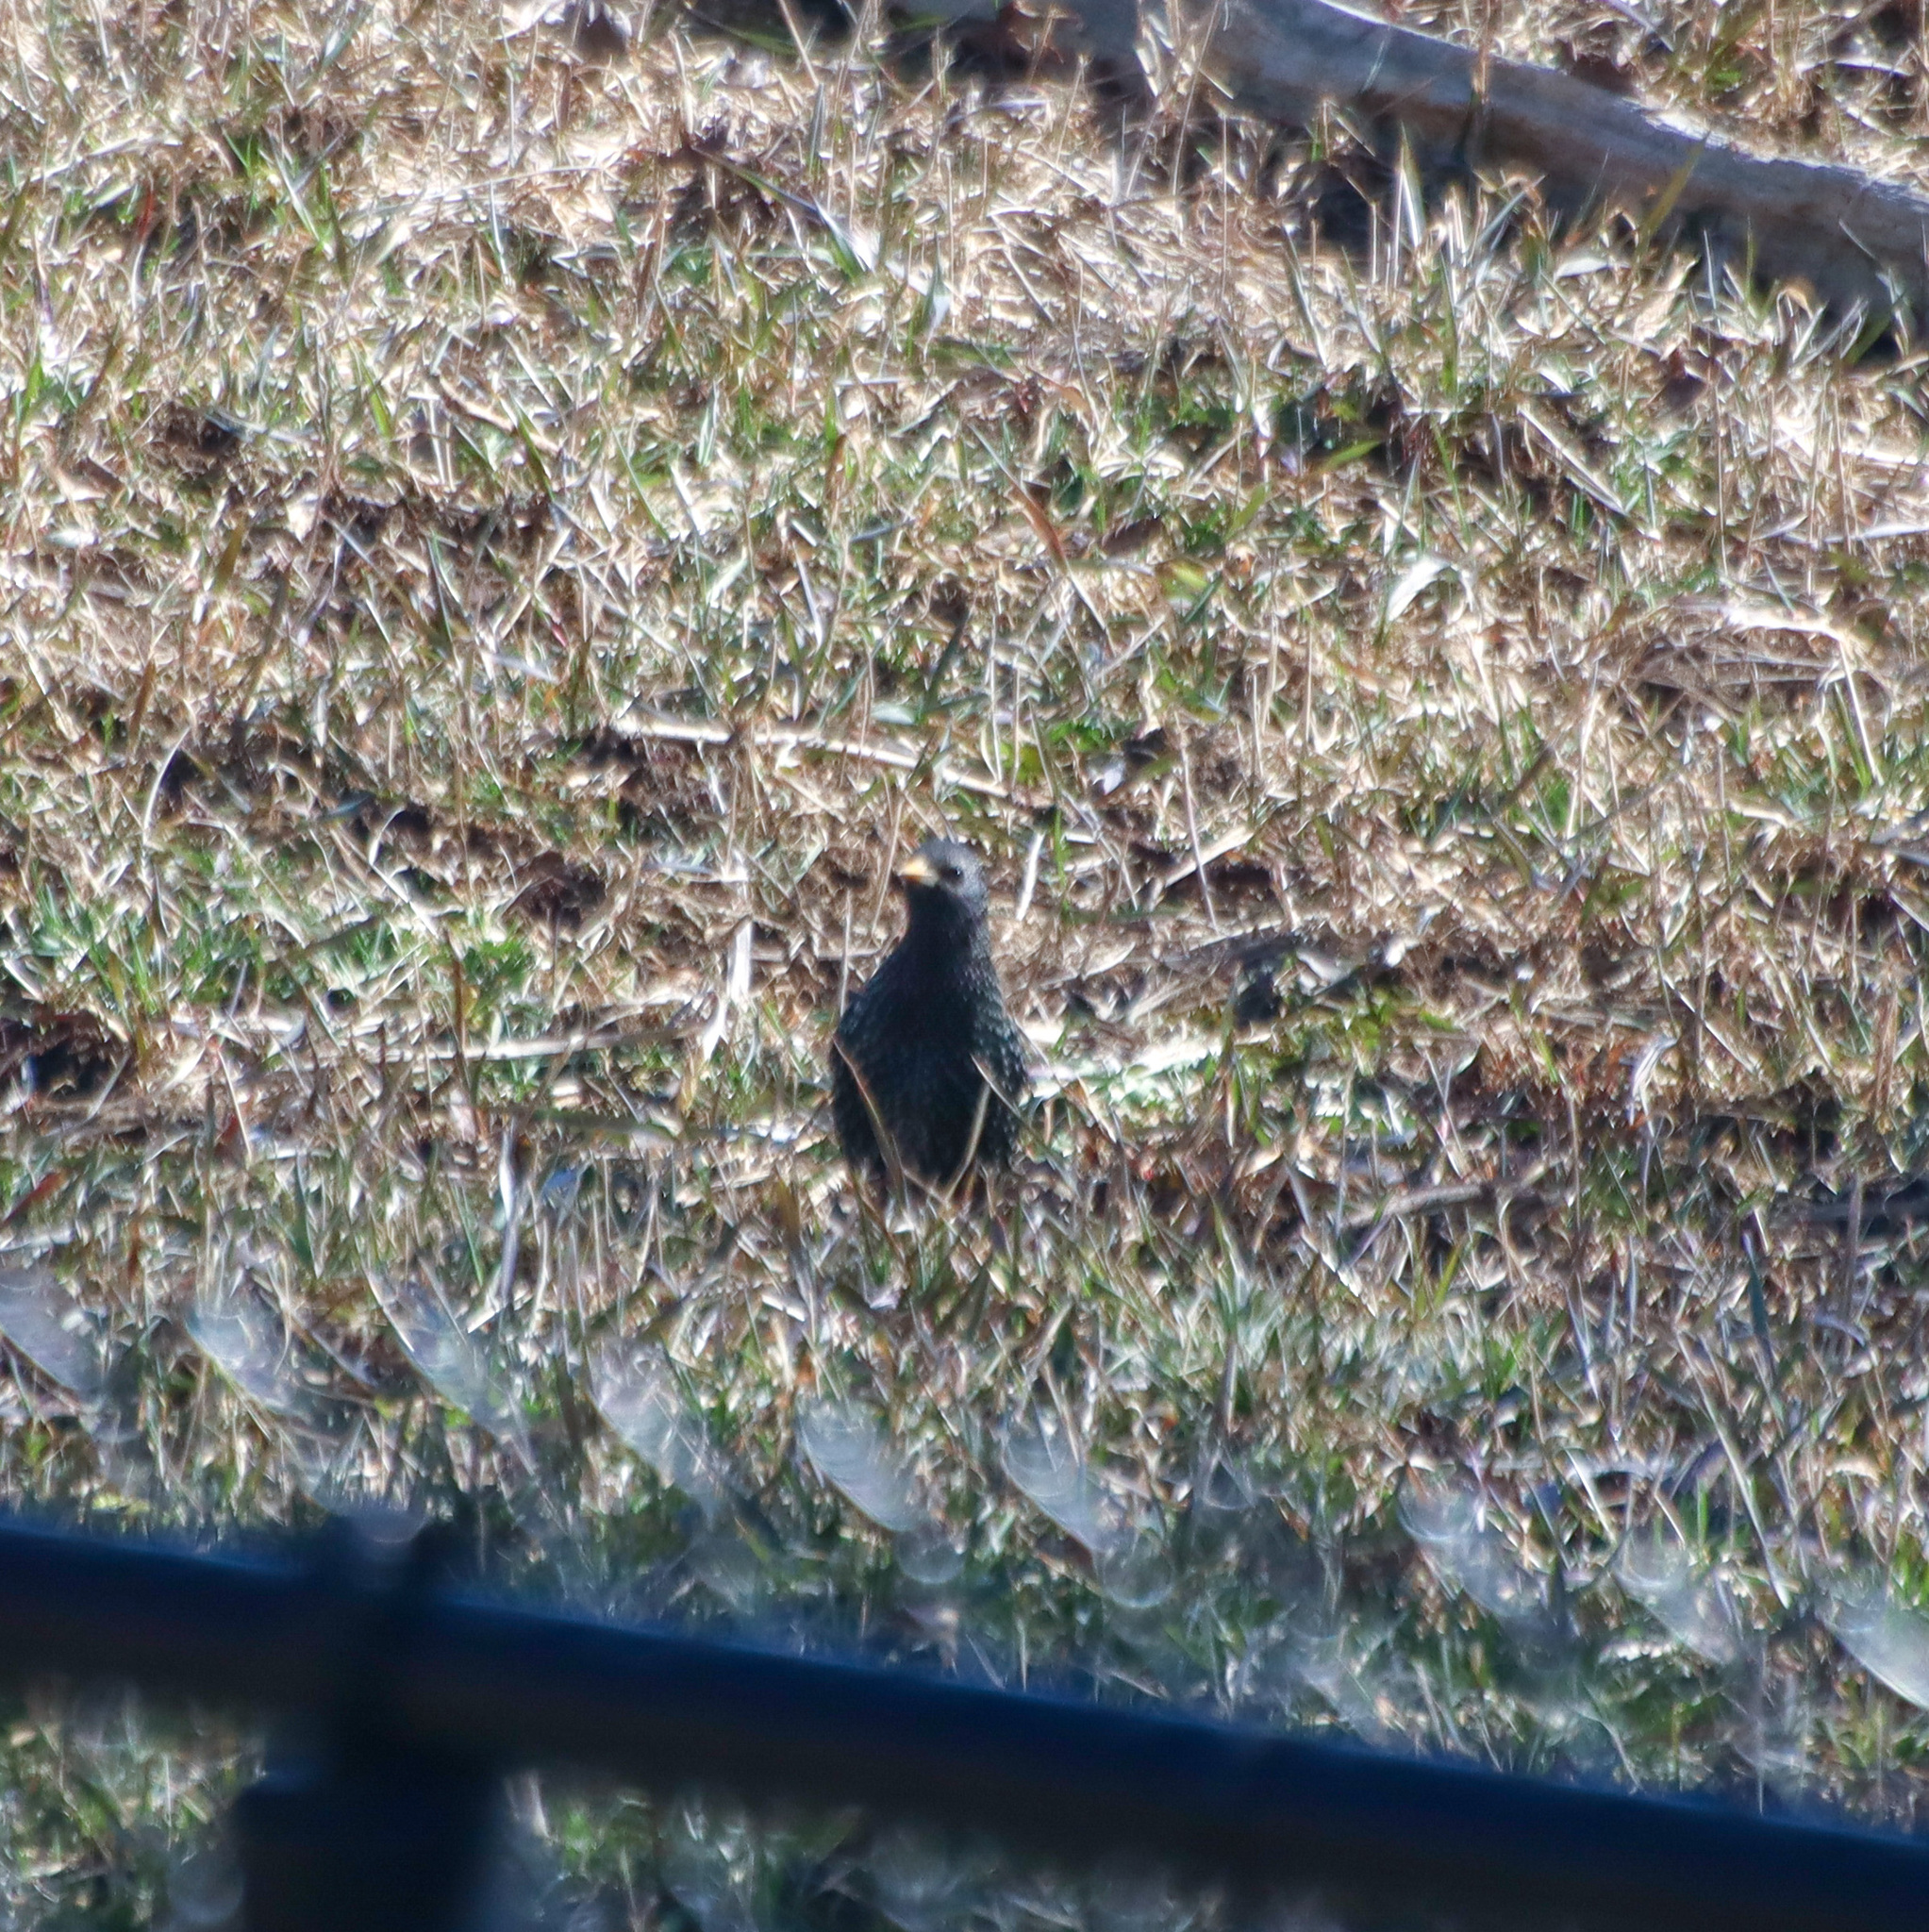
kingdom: Animalia
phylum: Chordata
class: Aves
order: Passeriformes
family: Sturnidae
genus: Sturnus
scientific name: Sturnus vulgaris
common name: Common starling
